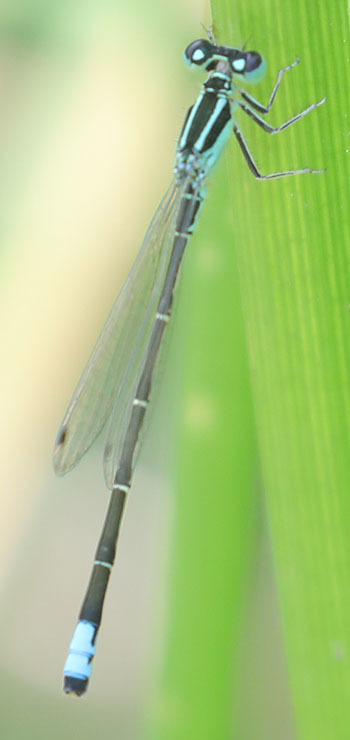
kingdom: Animalia
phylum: Arthropoda
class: Insecta
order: Odonata
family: Coenagrionidae
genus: Ischnura
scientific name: Ischnura perparva
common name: Western forktail
